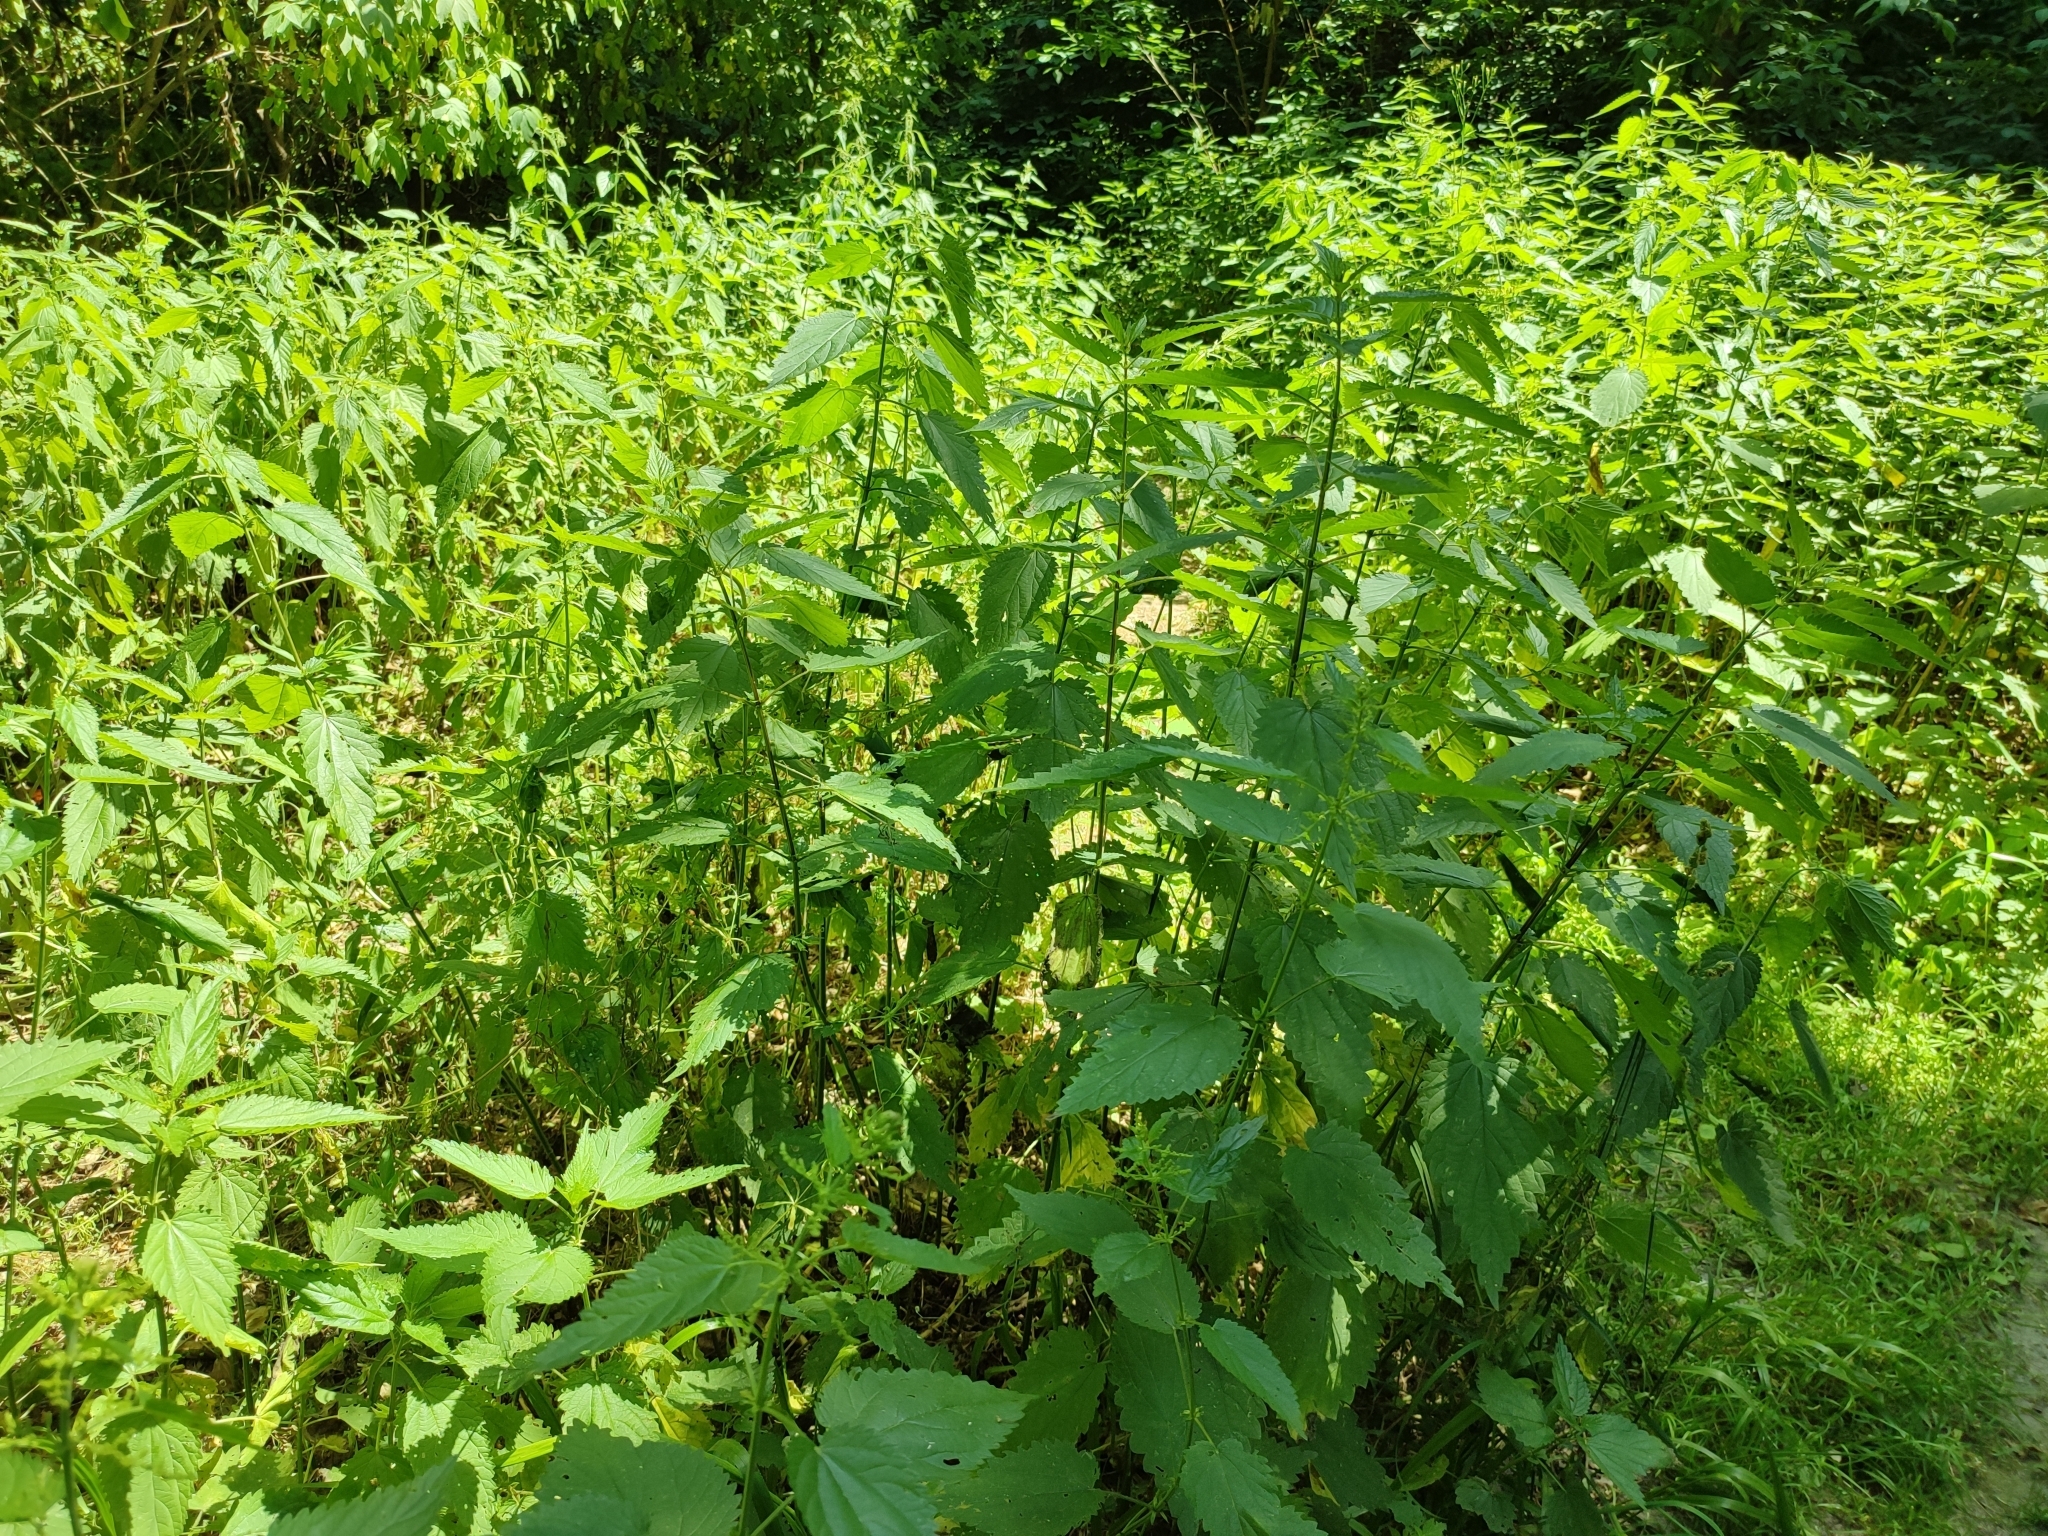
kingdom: Plantae
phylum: Tracheophyta
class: Magnoliopsida
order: Rosales
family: Urticaceae
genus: Urtica
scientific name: Urtica dioica
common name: Common nettle
